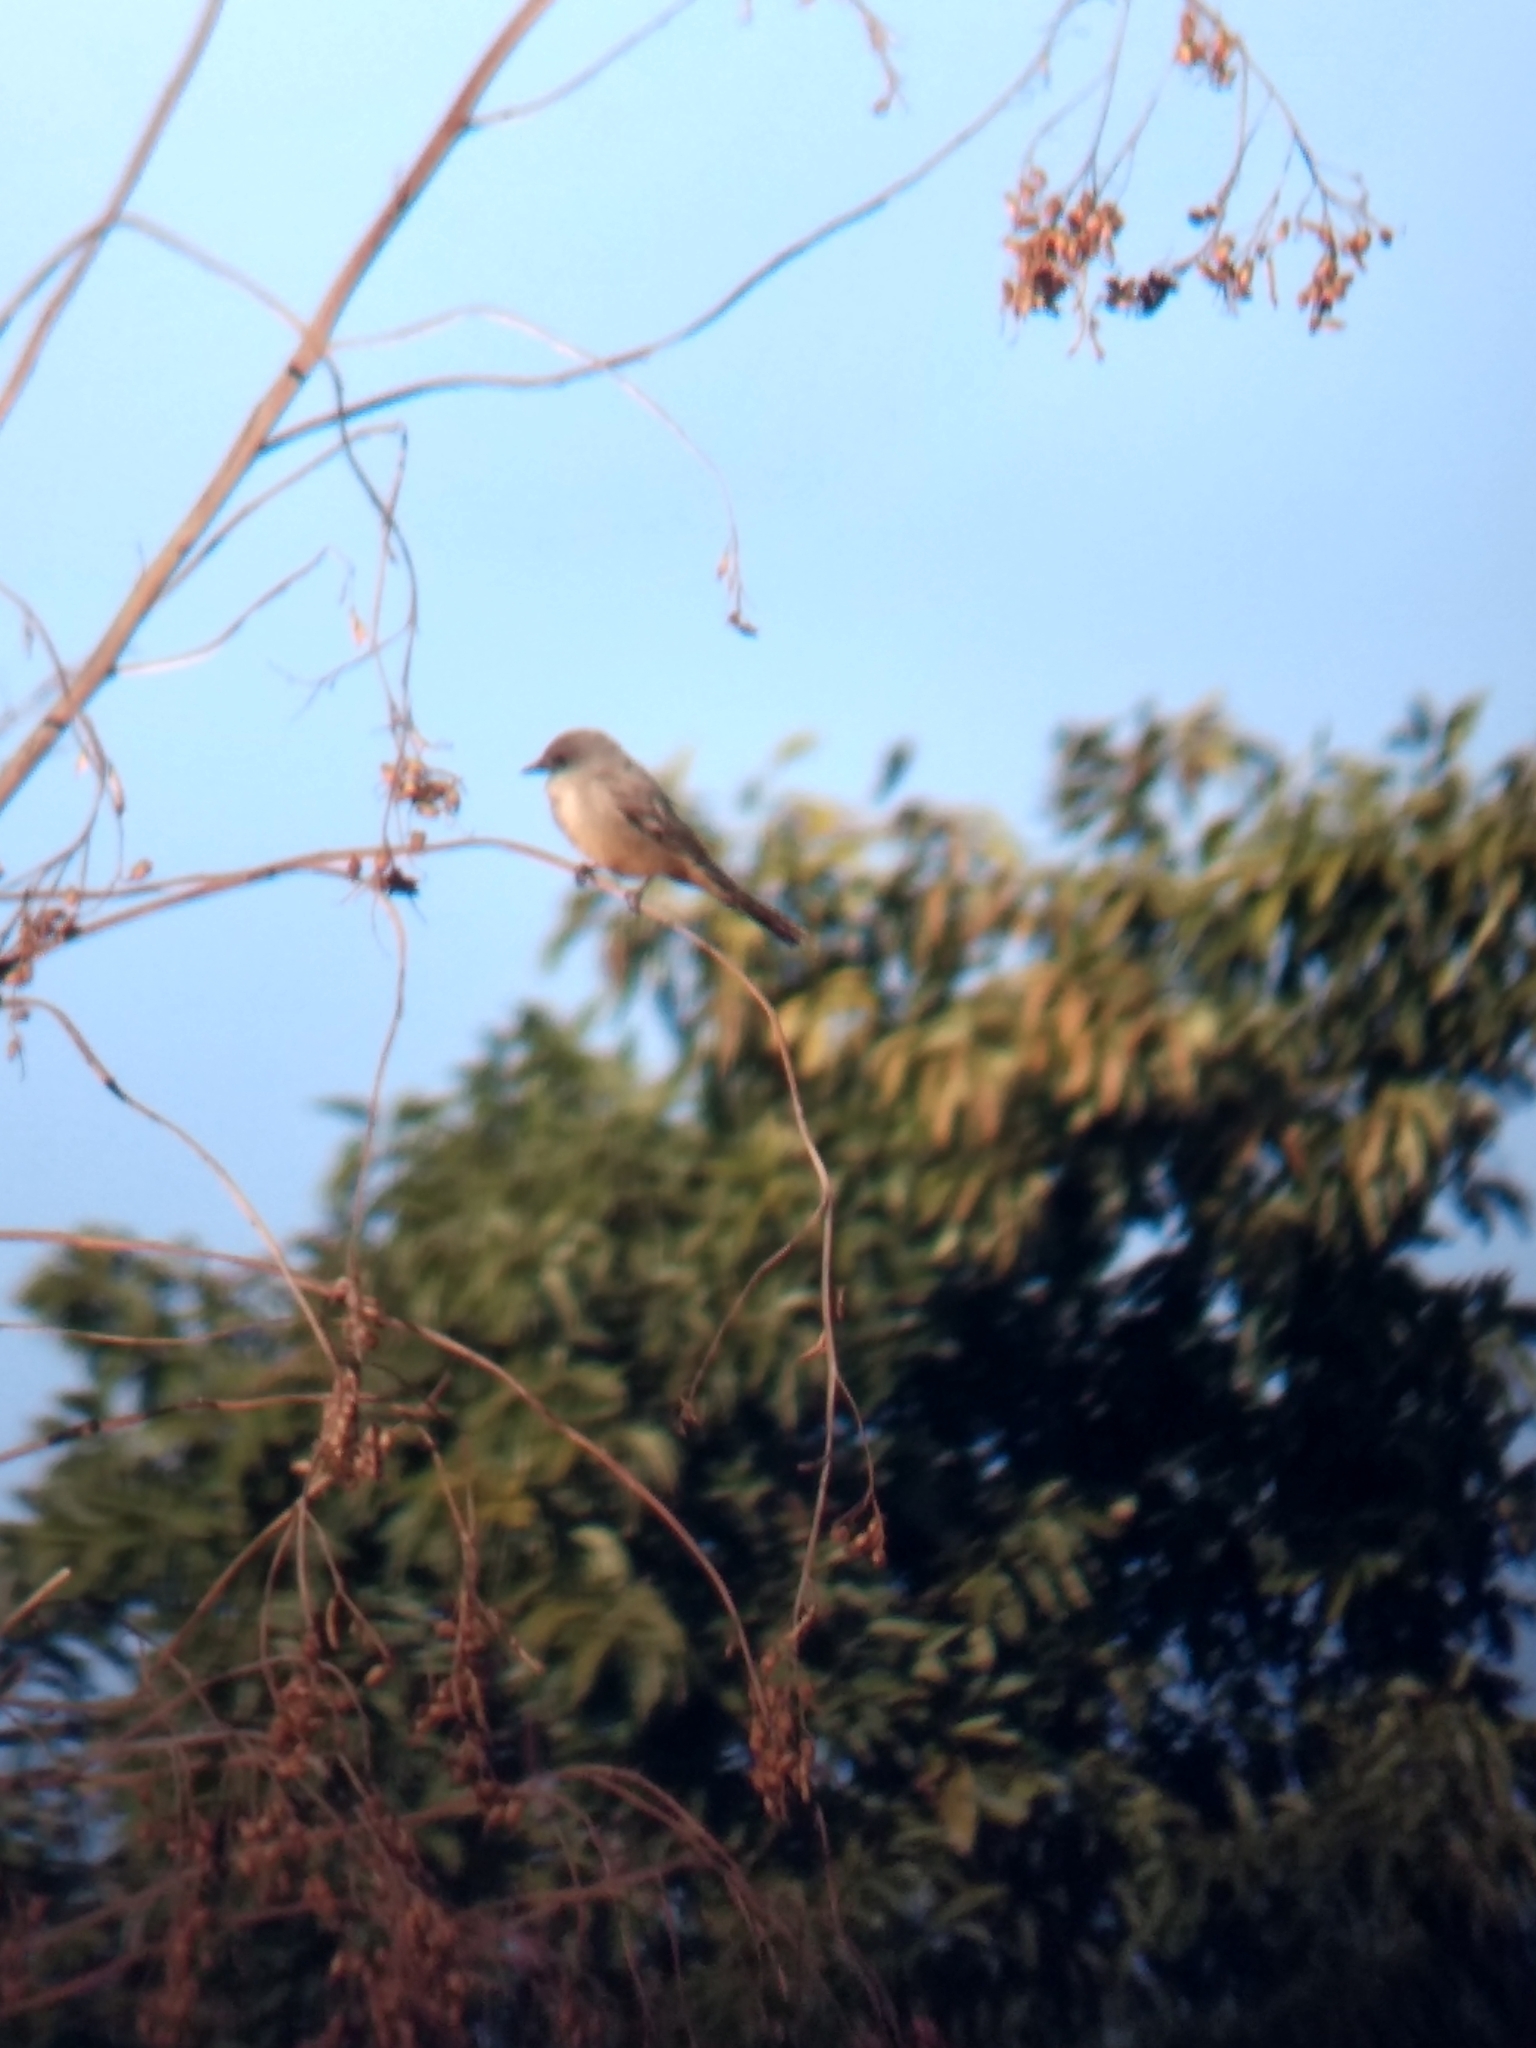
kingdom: Animalia
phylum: Chordata
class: Aves
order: Passeriformes
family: Tyrannidae
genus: Sayornis
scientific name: Sayornis saya
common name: Say's phoebe
